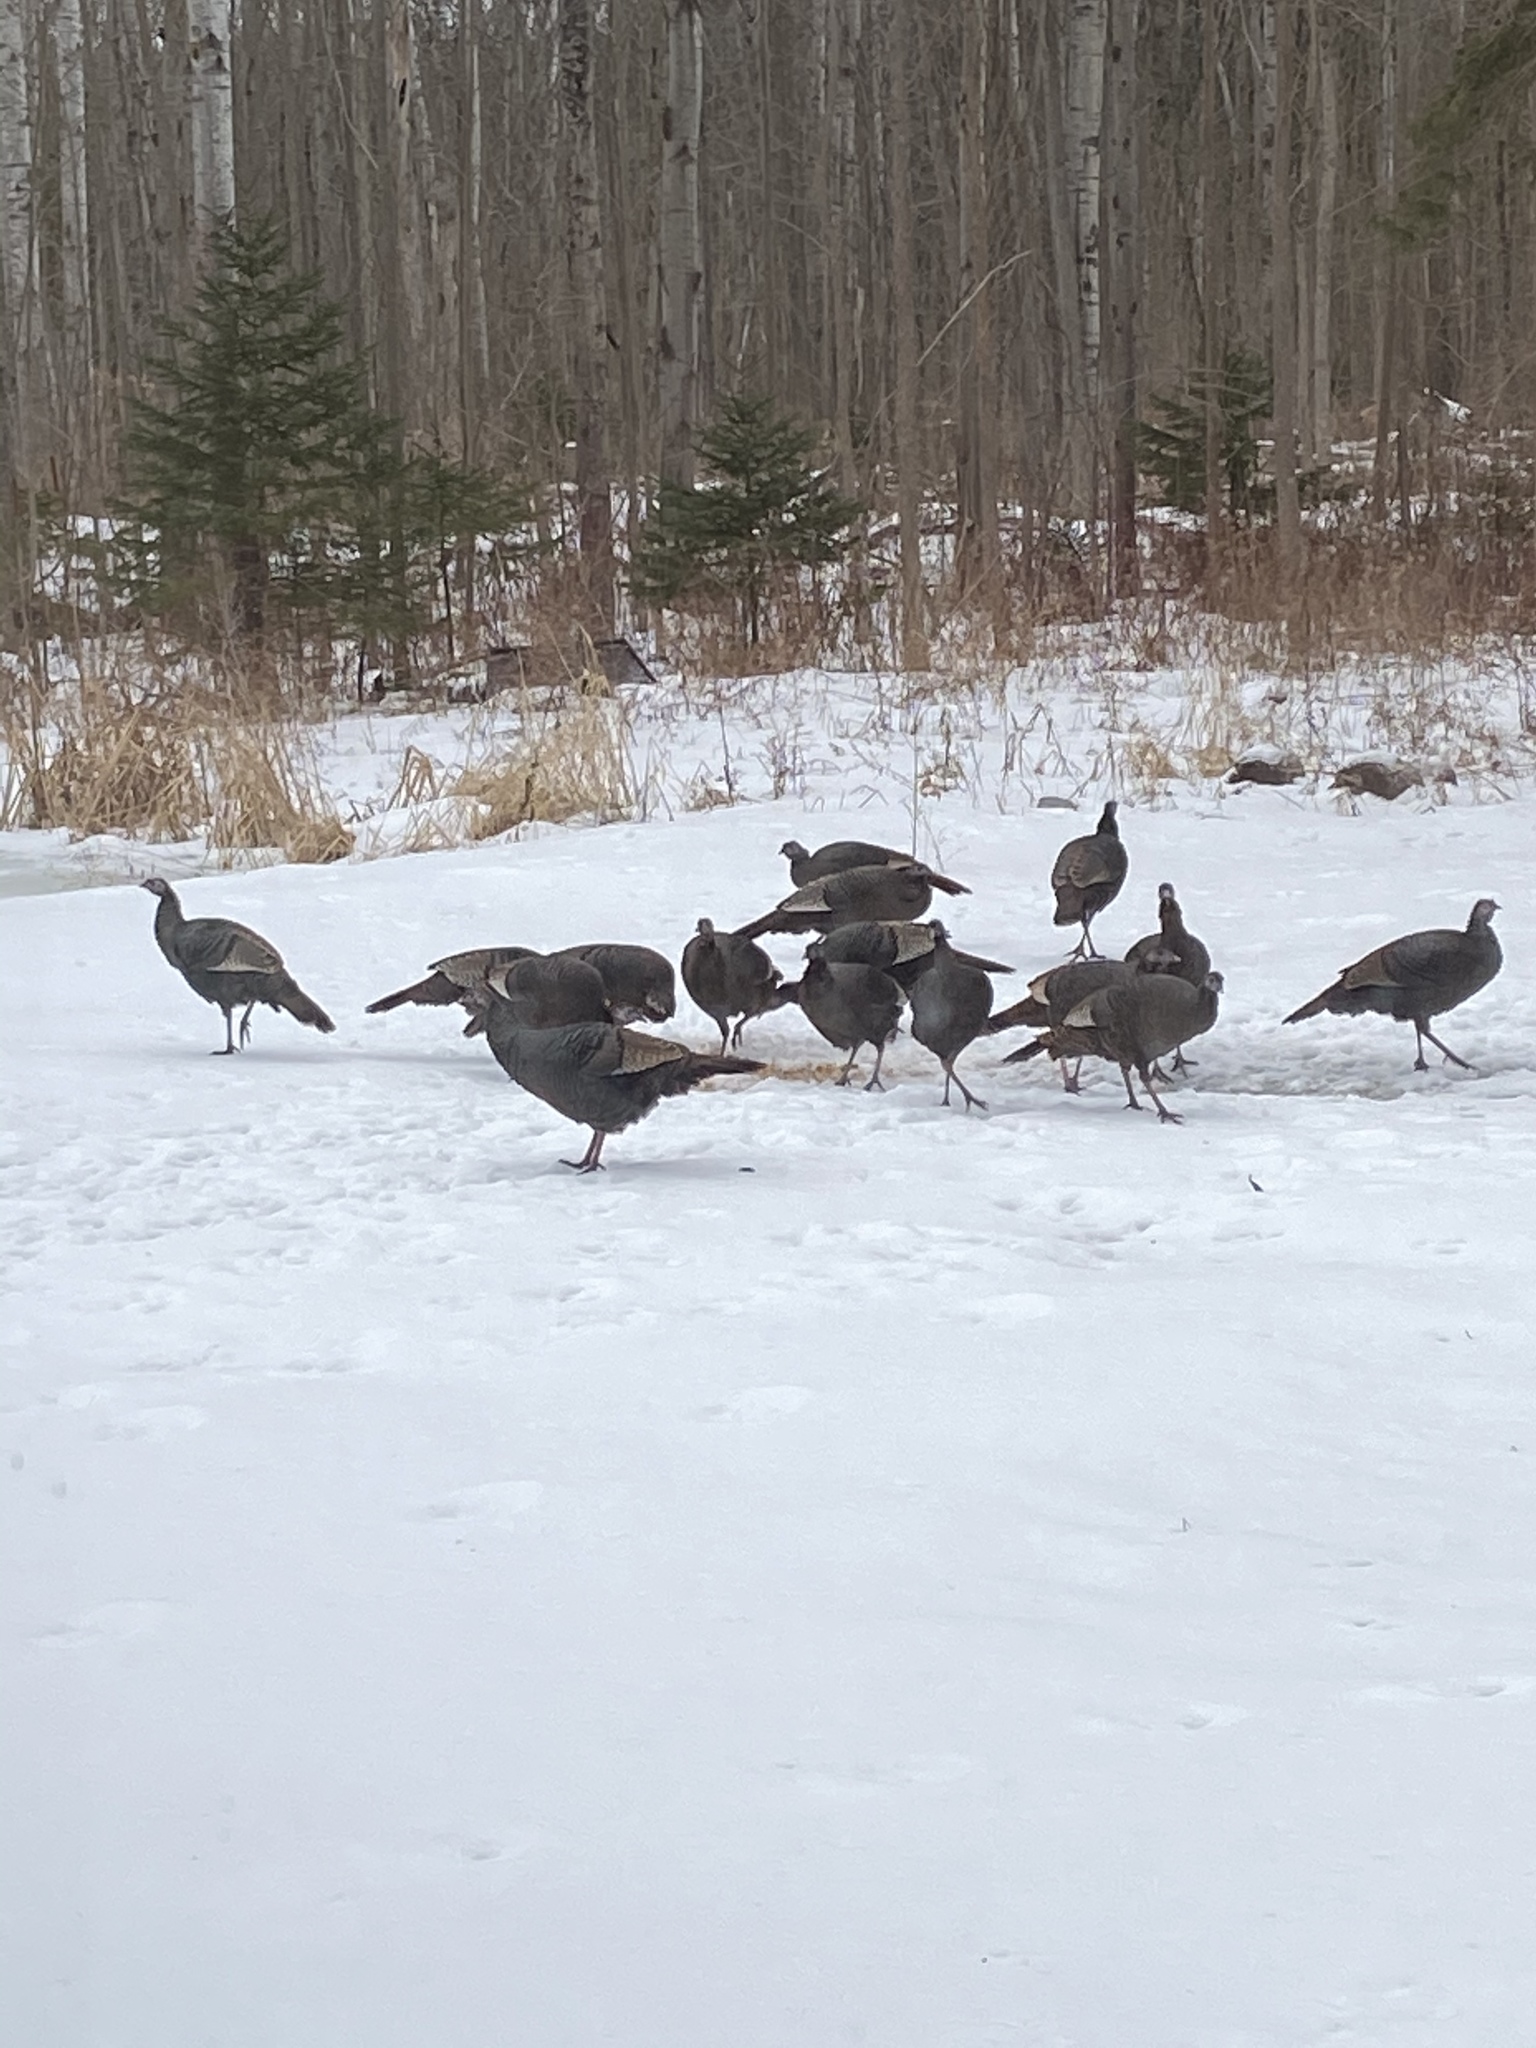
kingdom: Animalia
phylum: Chordata
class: Aves
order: Galliformes
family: Phasianidae
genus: Meleagris
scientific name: Meleagris gallopavo
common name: Wild turkey
